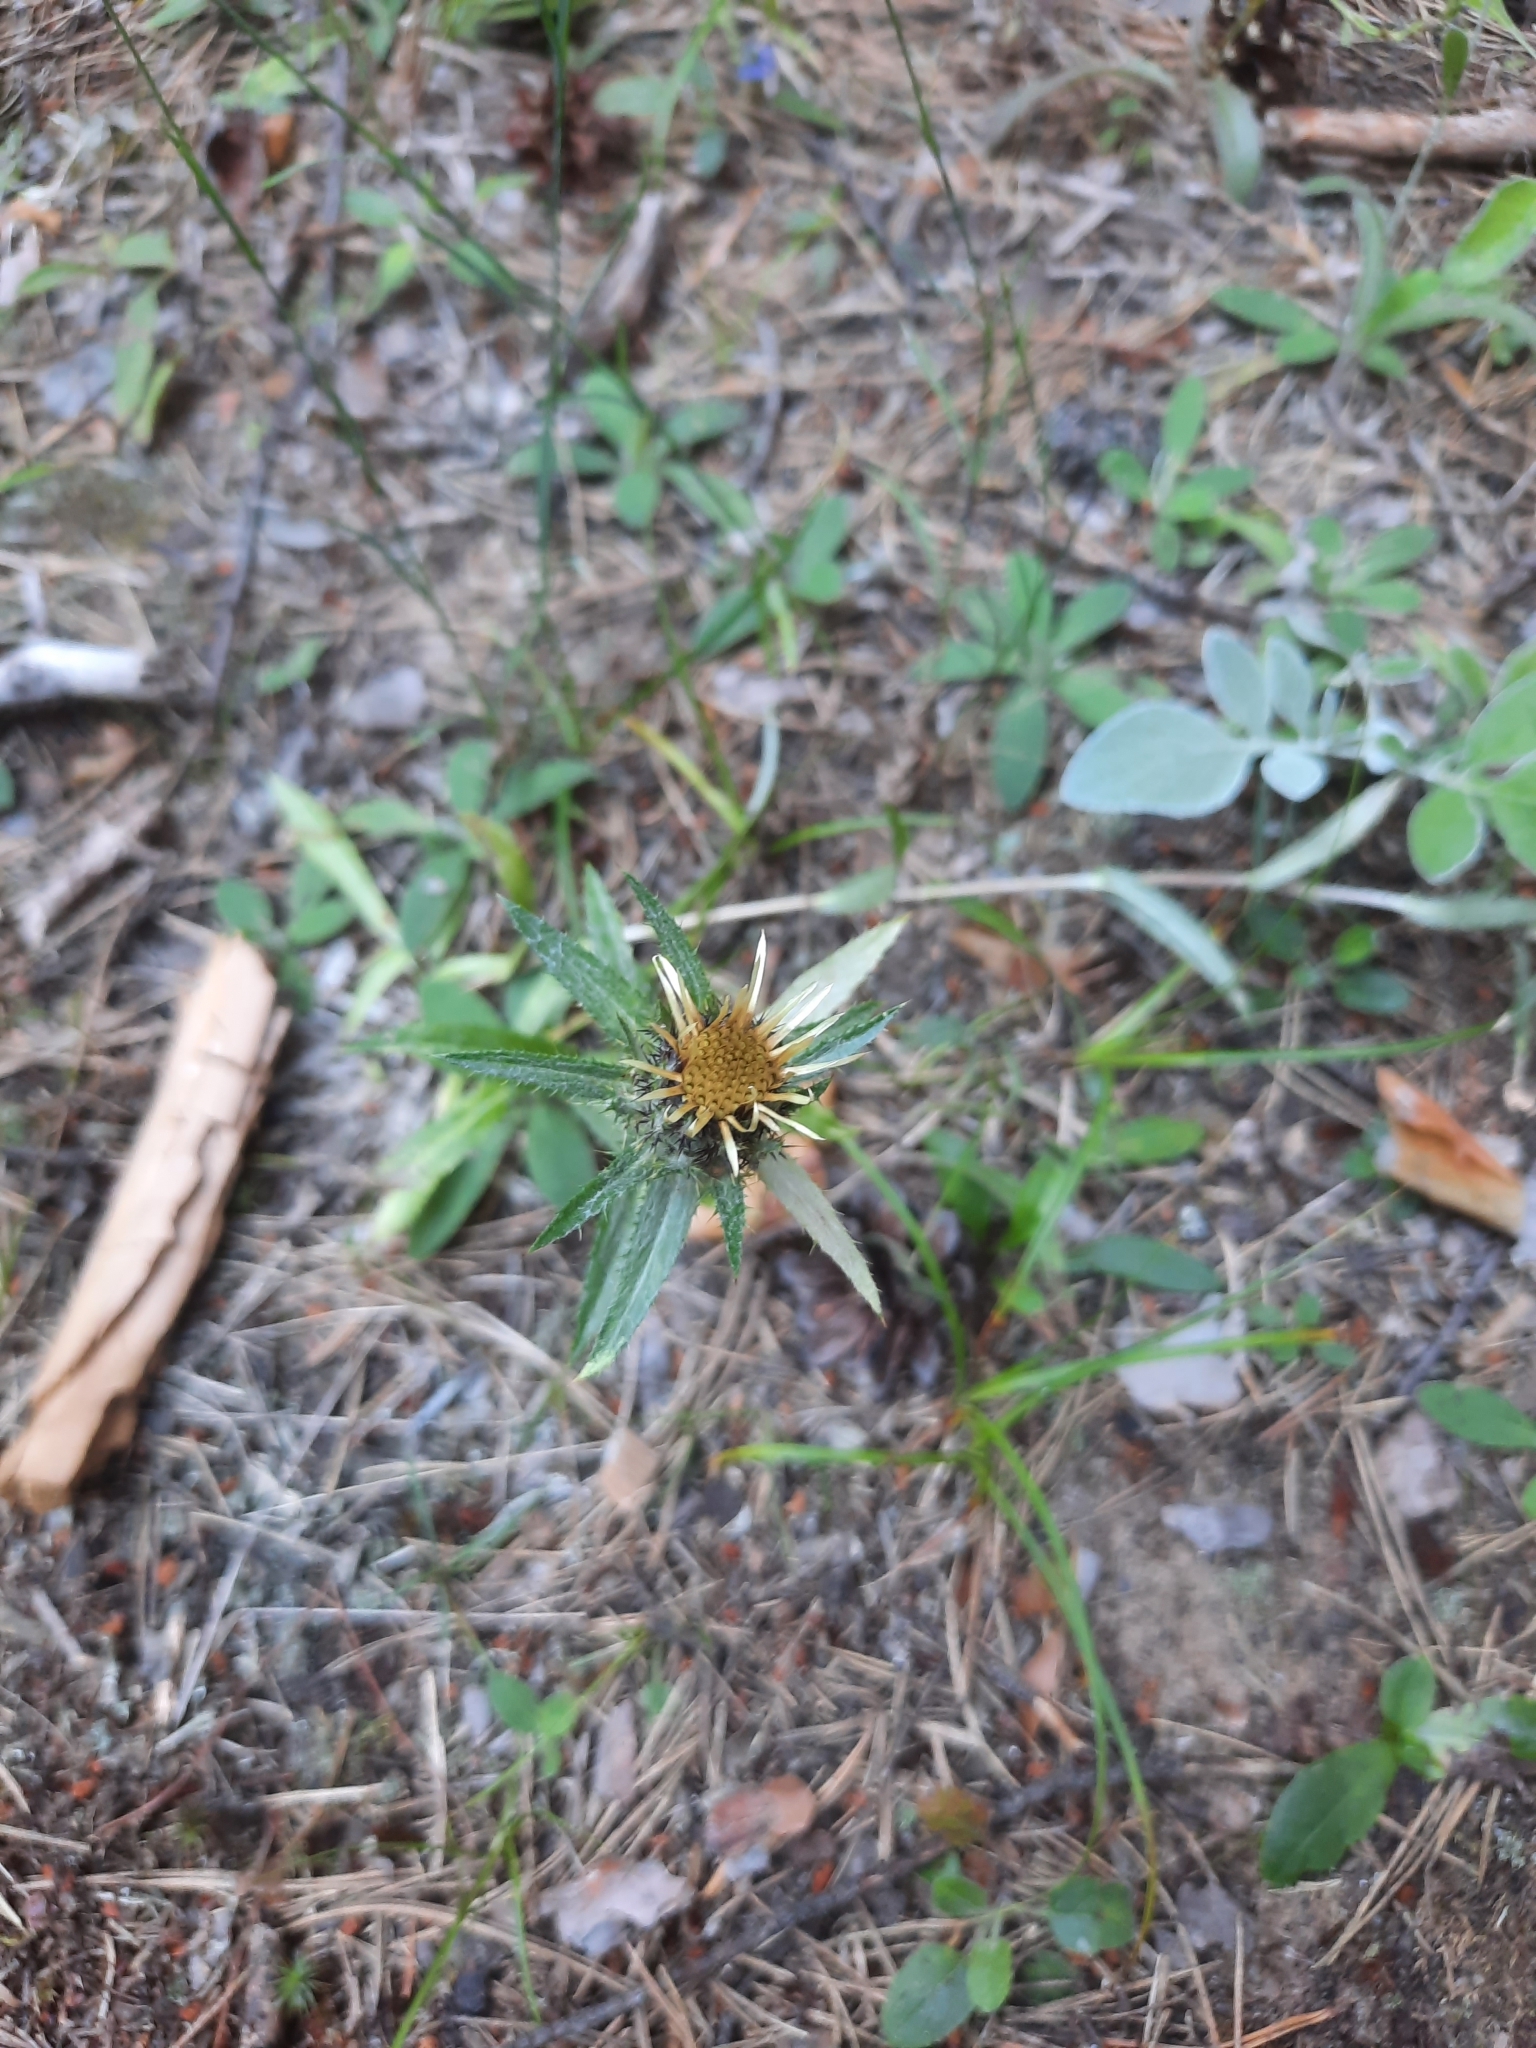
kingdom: Plantae
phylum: Tracheophyta
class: Magnoliopsida
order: Asterales
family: Asteraceae
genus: Carlina
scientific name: Carlina biebersteinii
